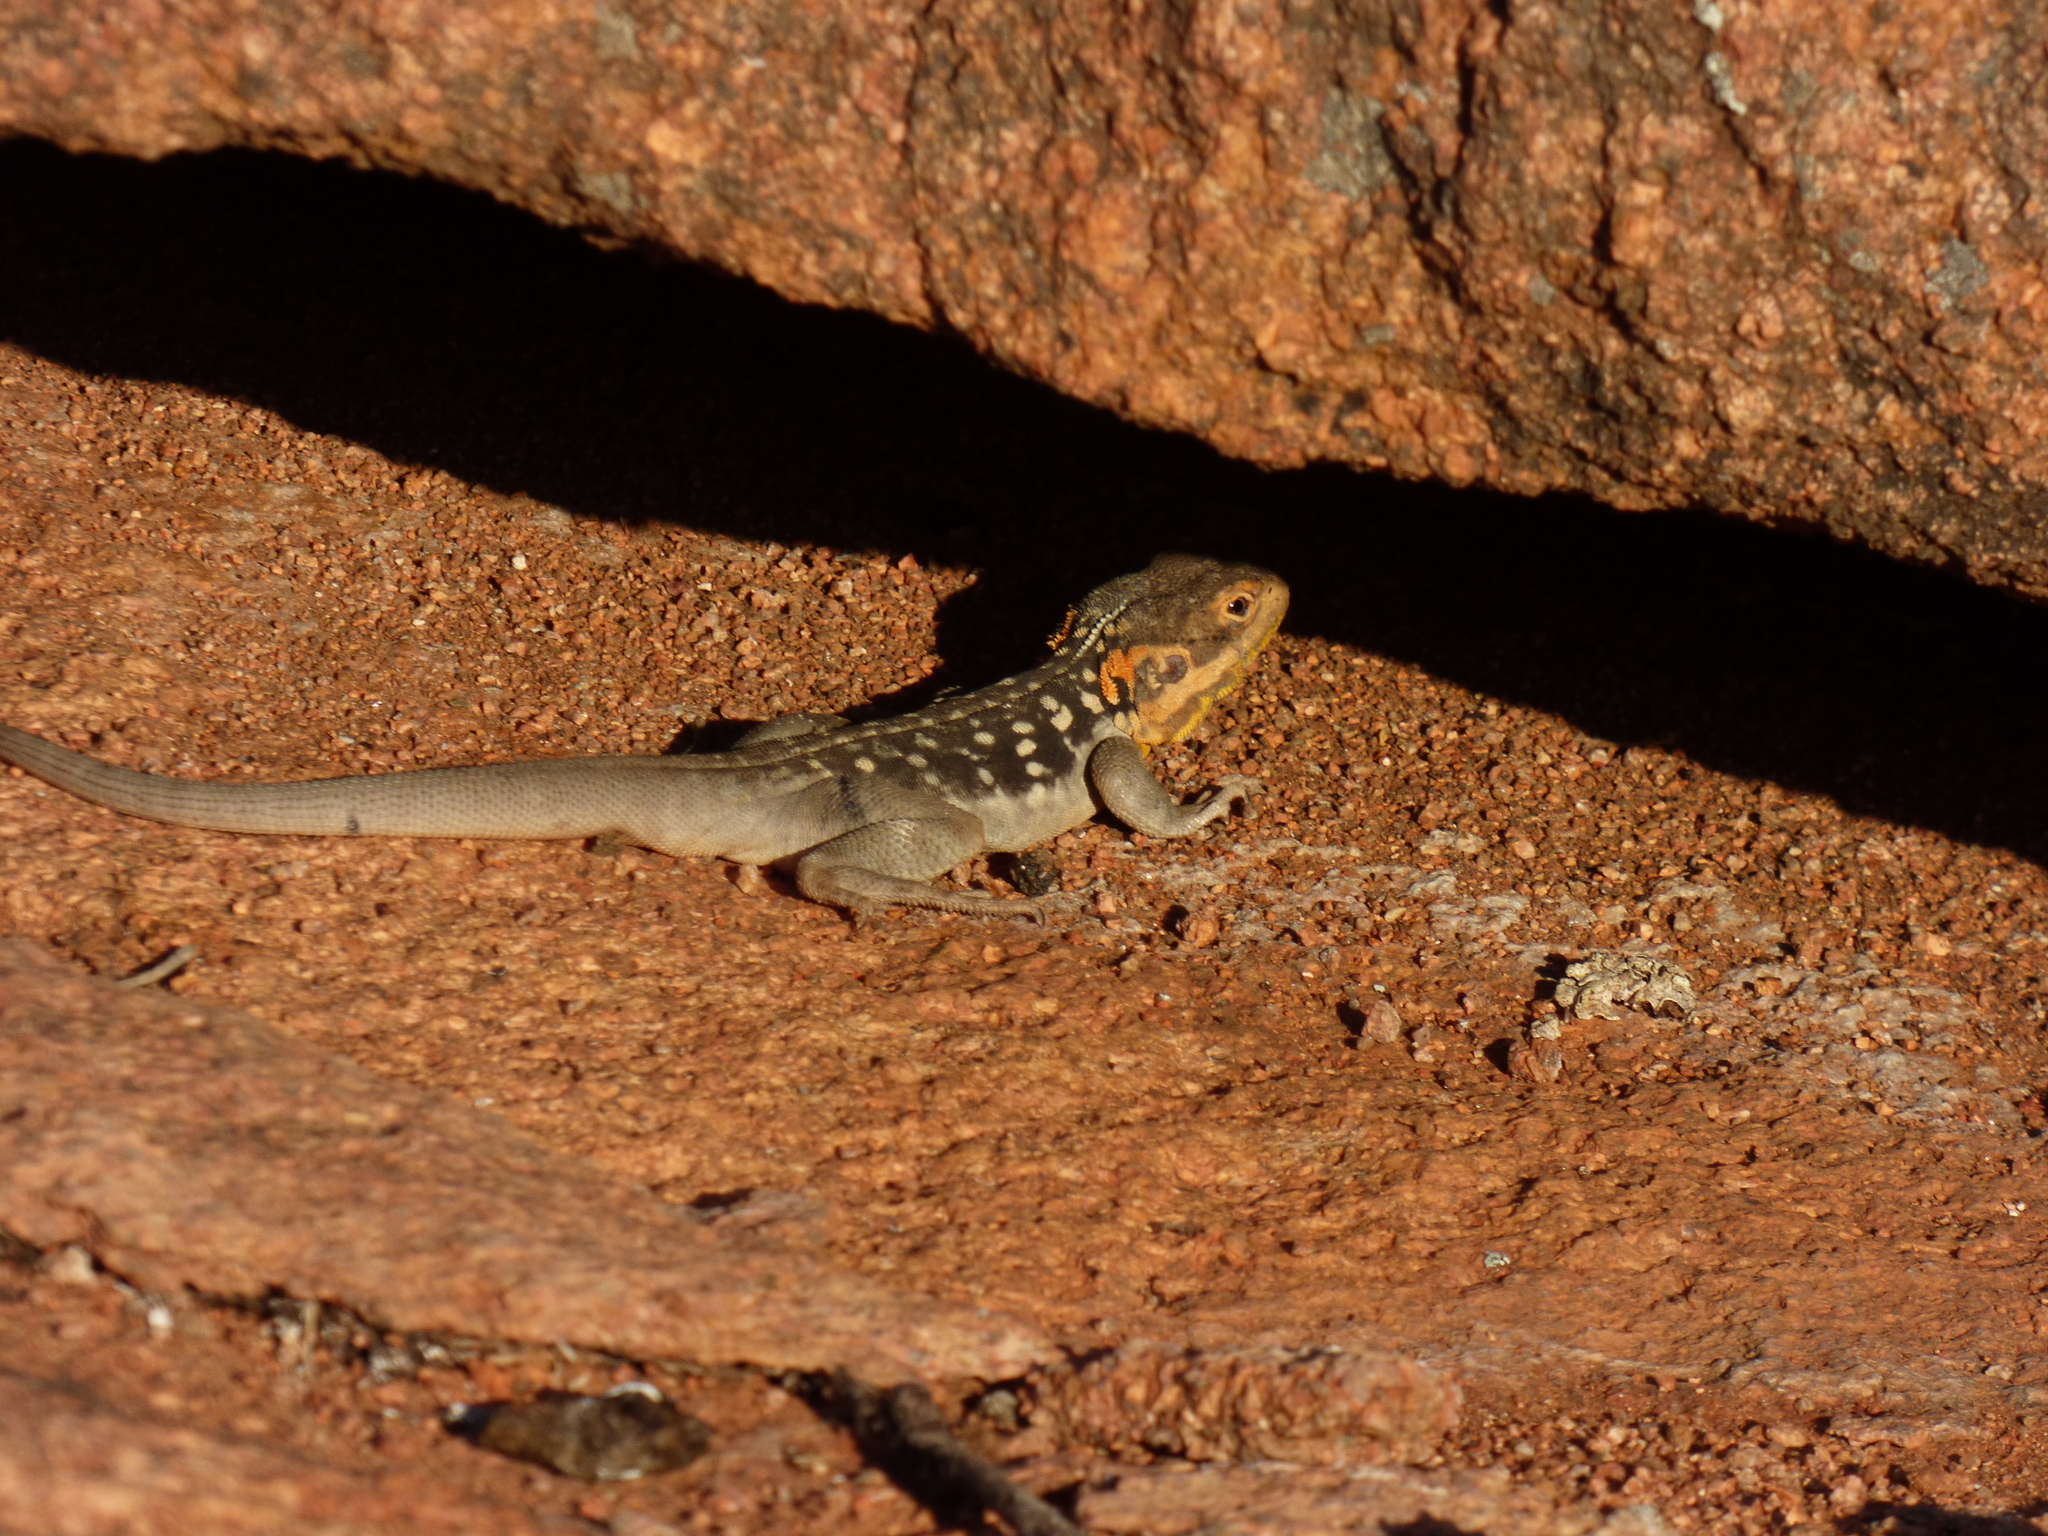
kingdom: Animalia
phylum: Chordata
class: Squamata
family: Agamidae
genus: Ctenophorus
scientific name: Ctenophorus fionni
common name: Peninsula crevis-dragon
